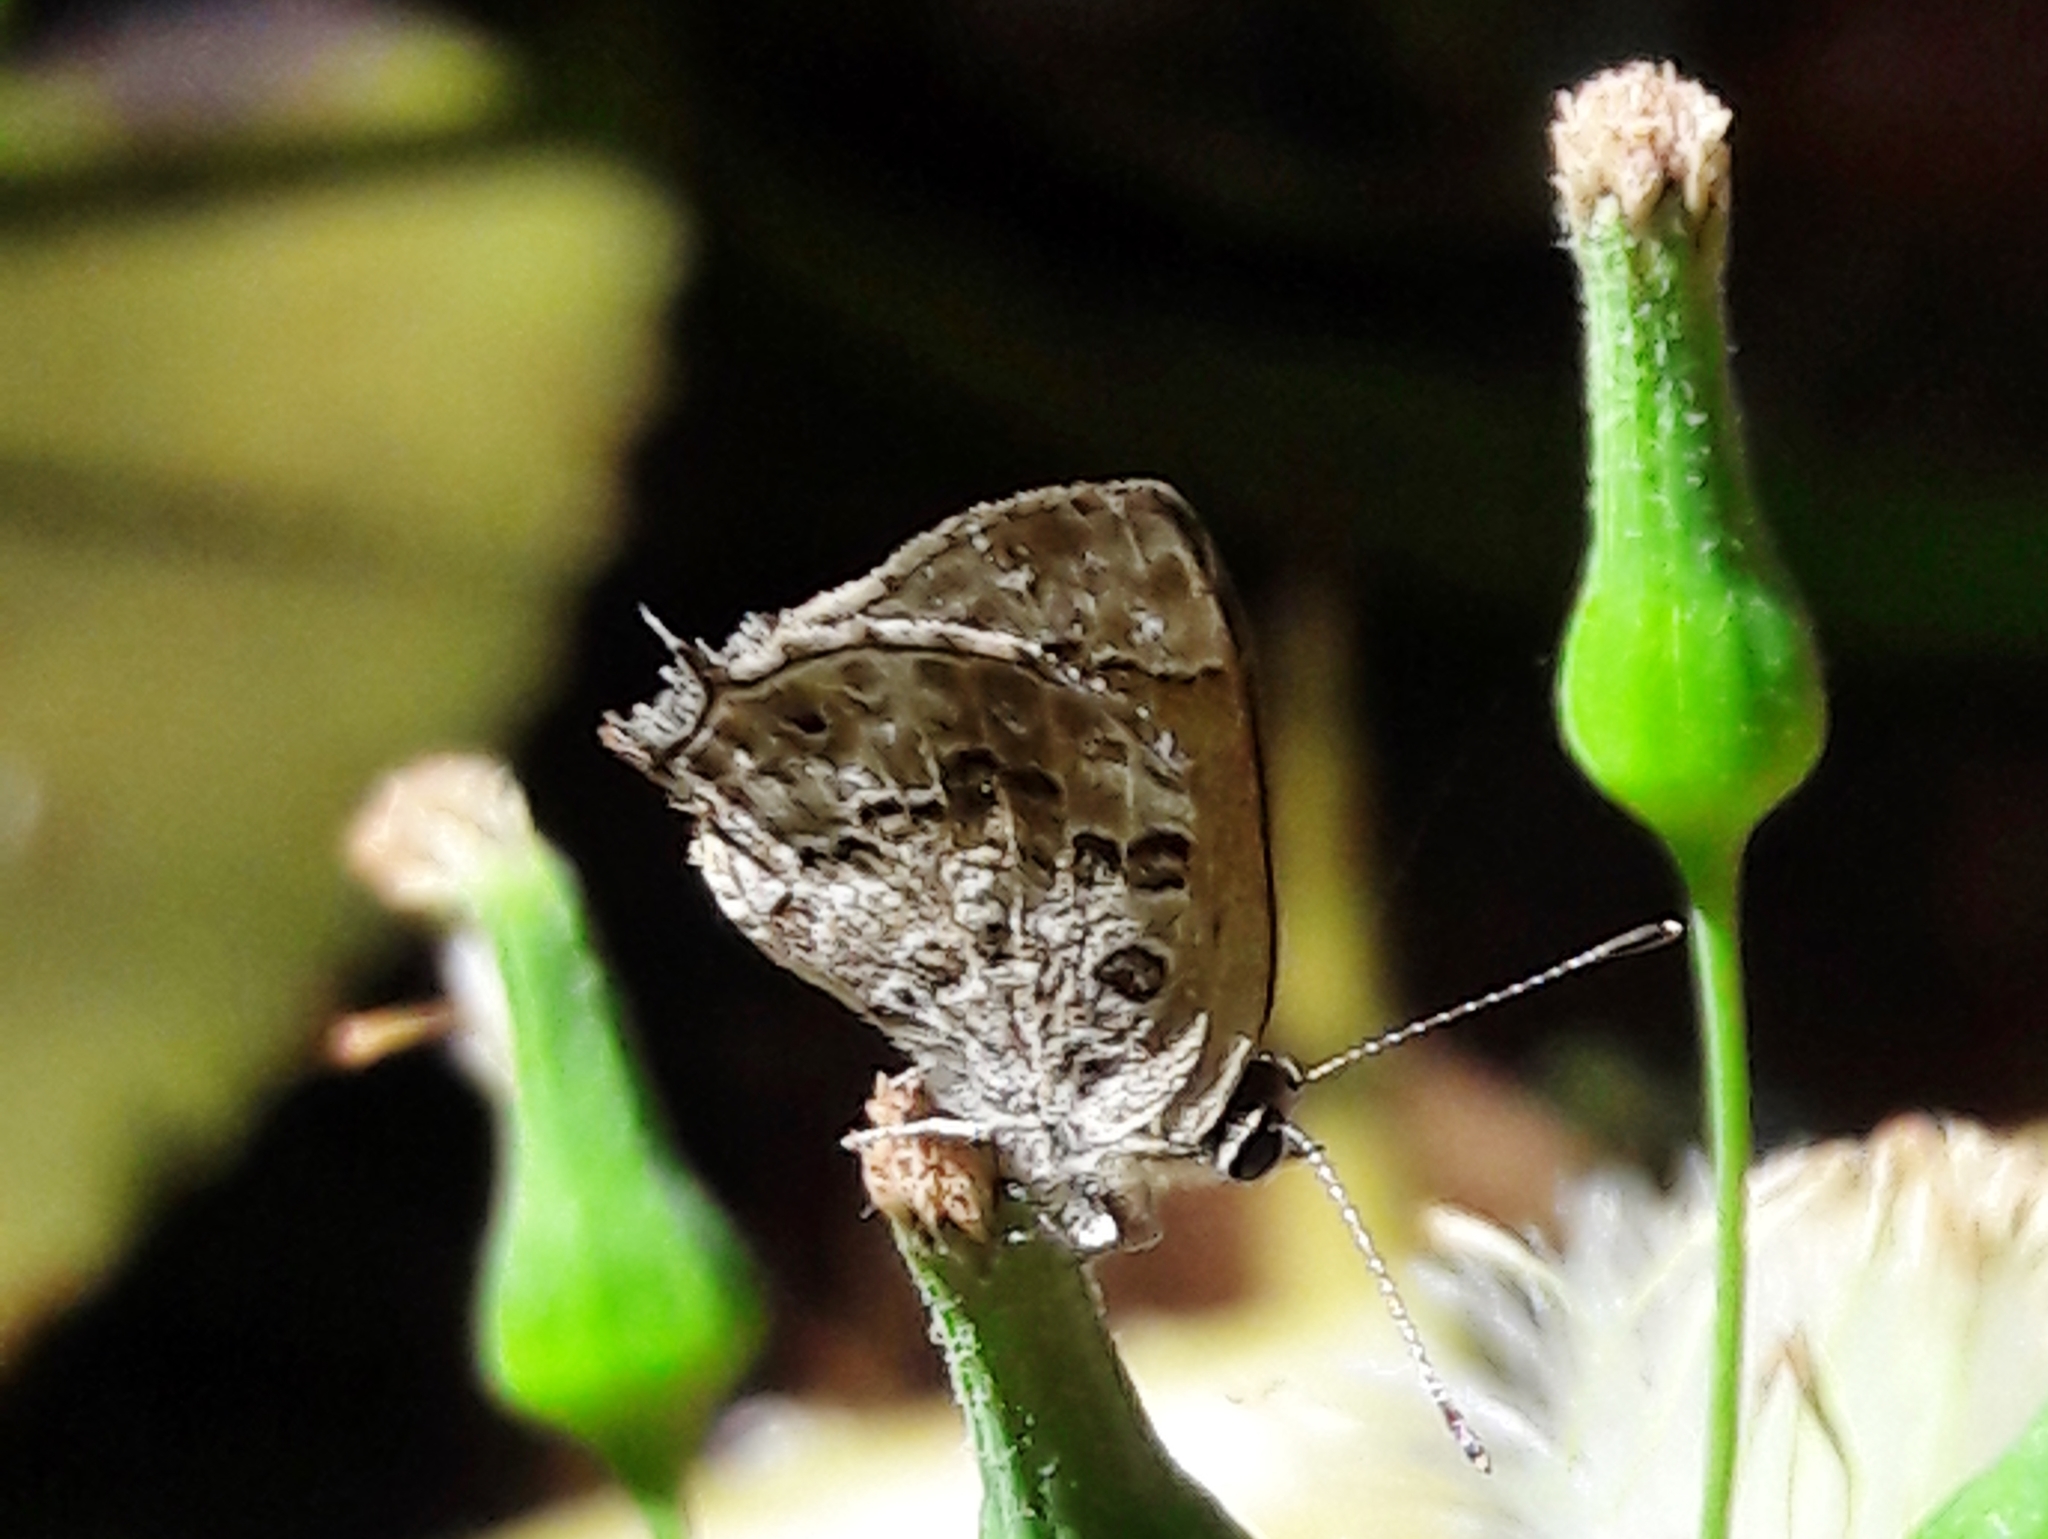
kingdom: Animalia
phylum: Arthropoda
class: Insecta
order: Lepidoptera
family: Lycaenidae
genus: Strymon
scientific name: Strymon astiocha
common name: Gray-spotted scrub-hairstreak
